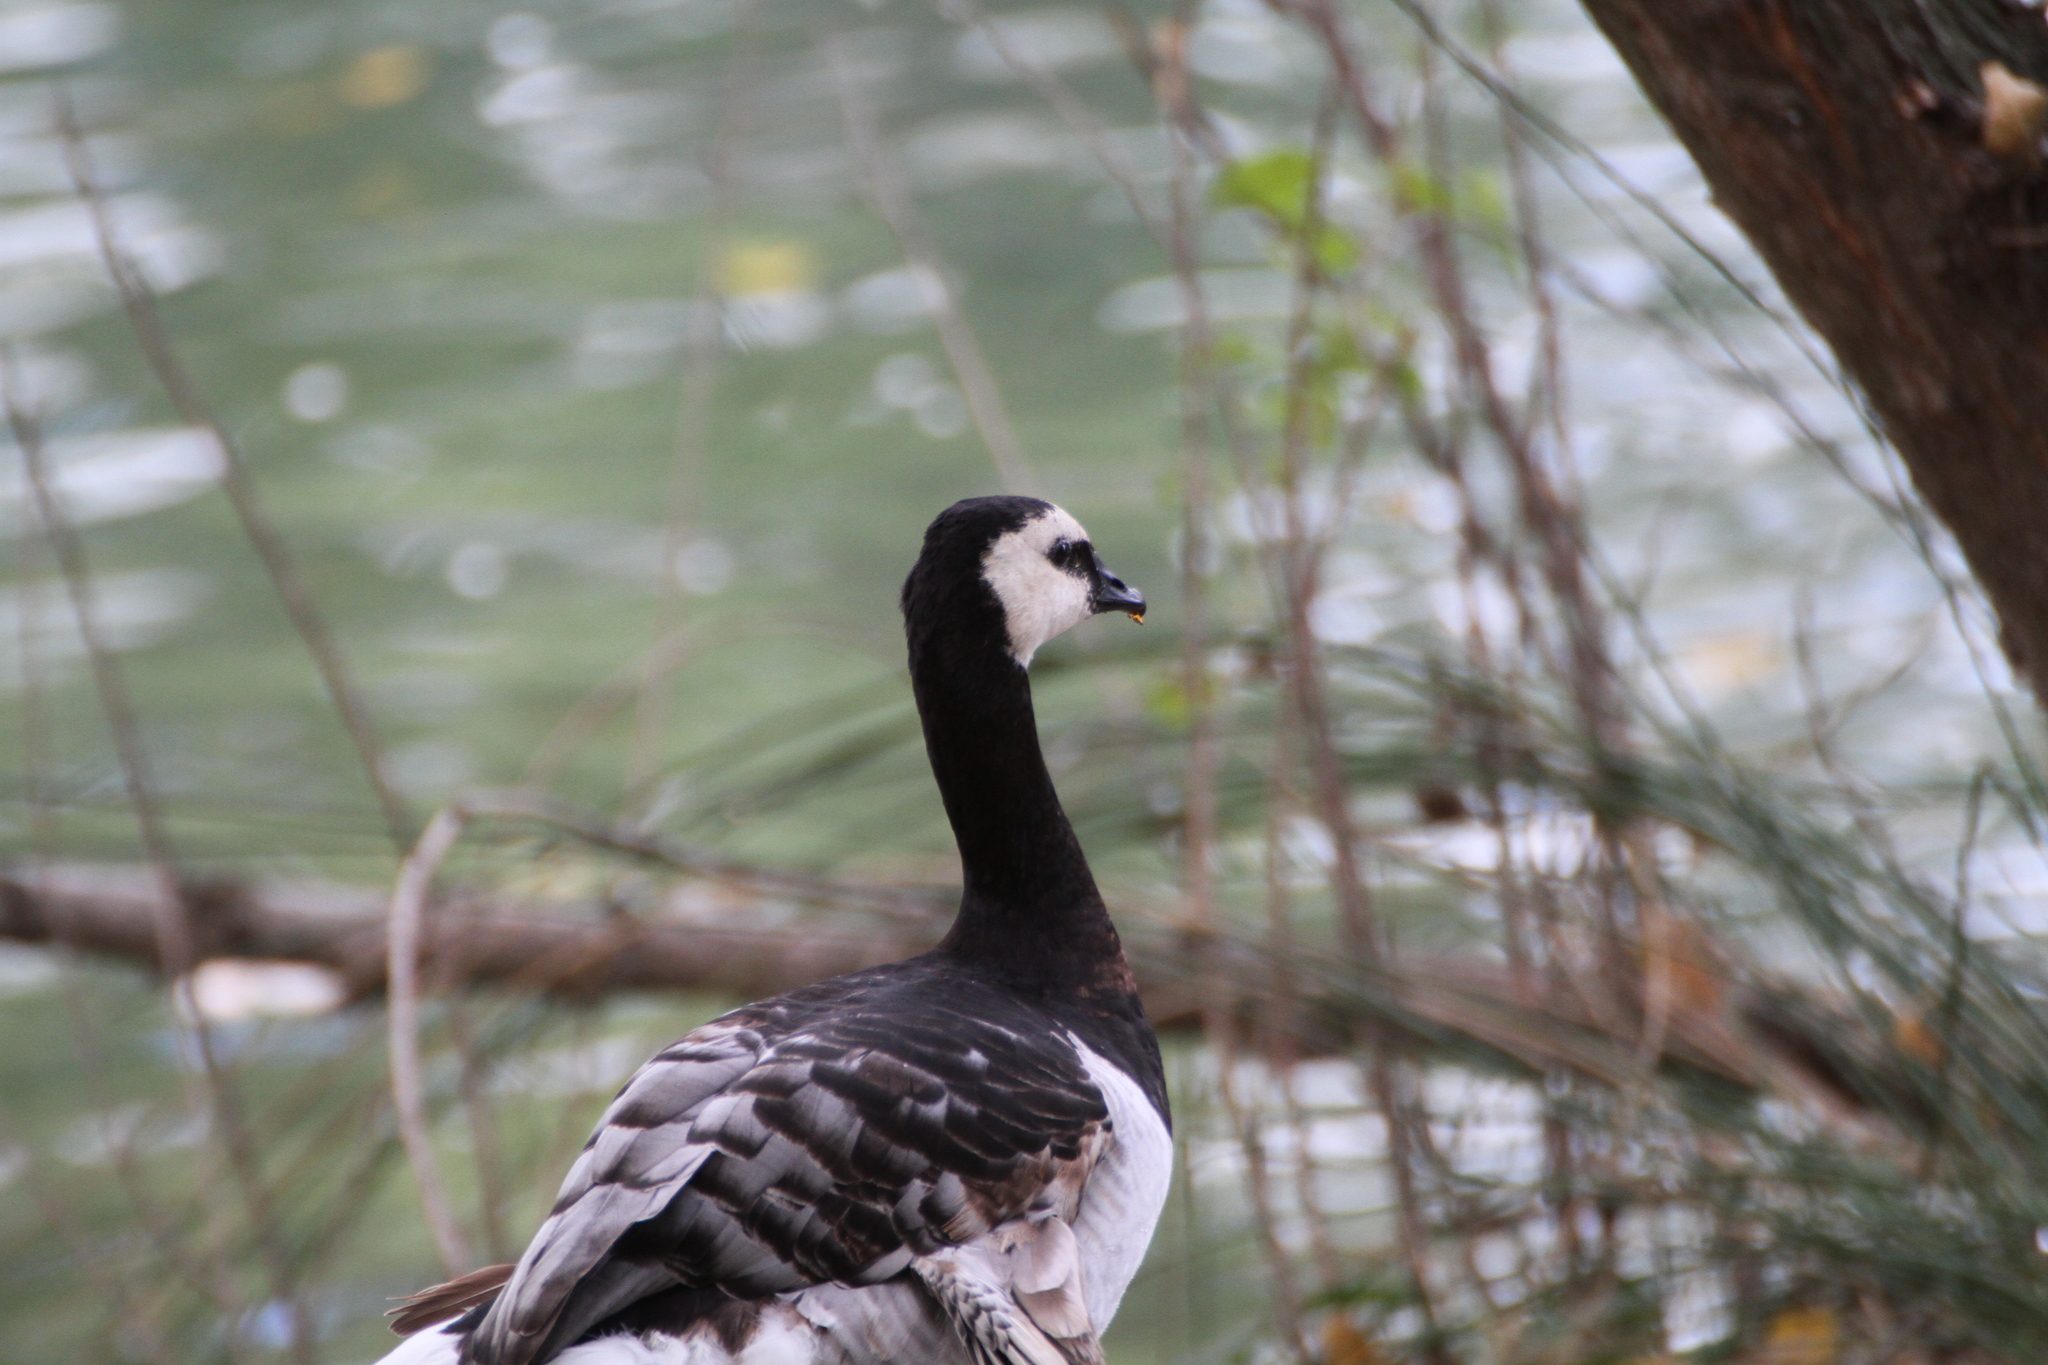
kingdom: Animalia
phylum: Chordata
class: Aves
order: Anseriformes
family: Anatidae
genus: Branta
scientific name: Branta leucopsis
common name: Barnacle goose
